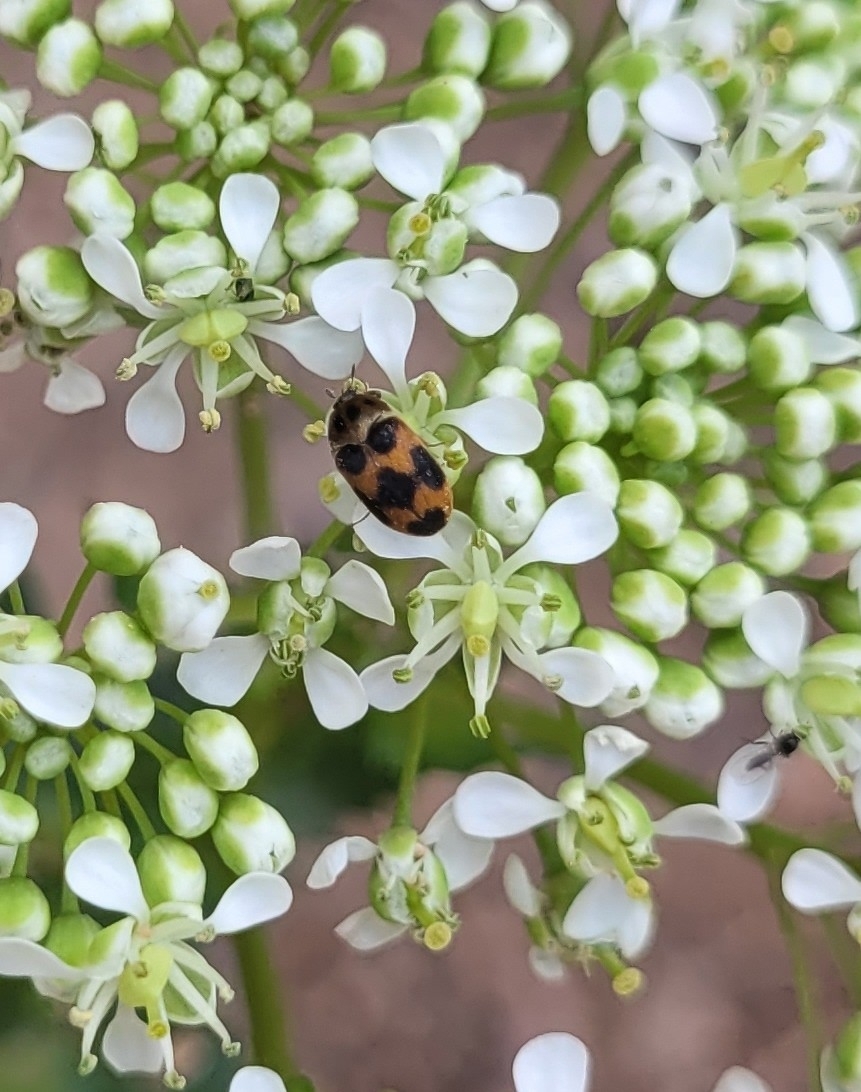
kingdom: Animalia
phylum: Arthropoda
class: Insecta
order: Coleoptera
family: Dermestidae
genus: Attagenus
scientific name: Attagenus suspiciosus
